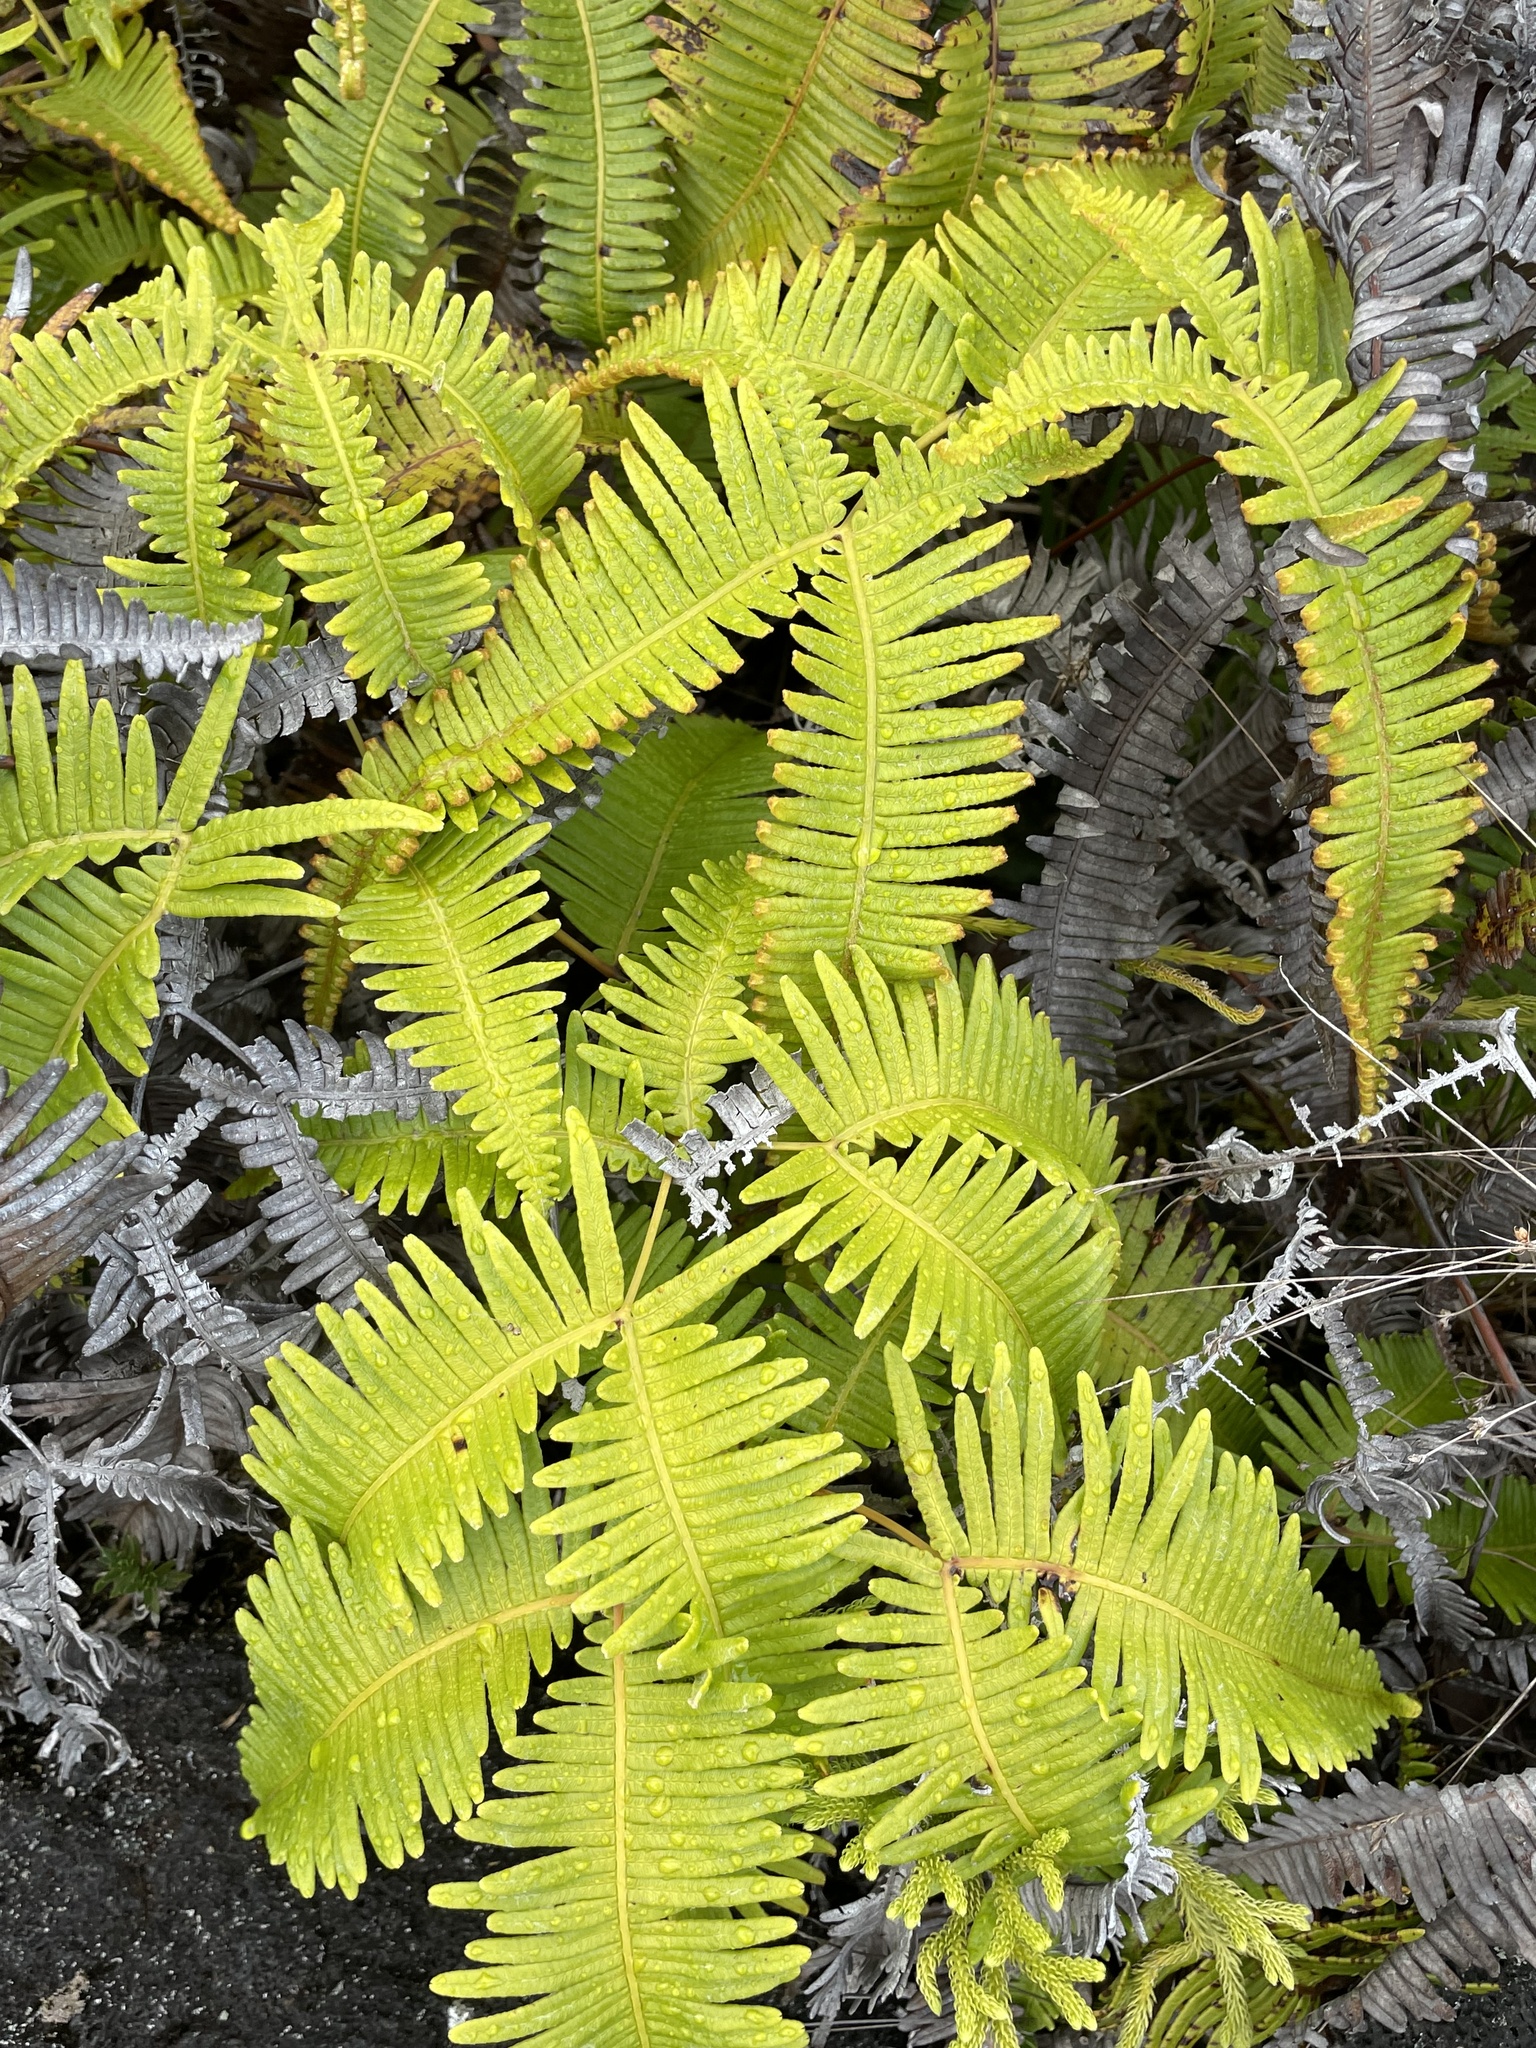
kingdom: Plantae
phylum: Tracheophyta
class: Polypodiopsida
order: Gleicheniales
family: Gleicheniaceae
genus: Dicranopteris
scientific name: Dicranopteris linearis
